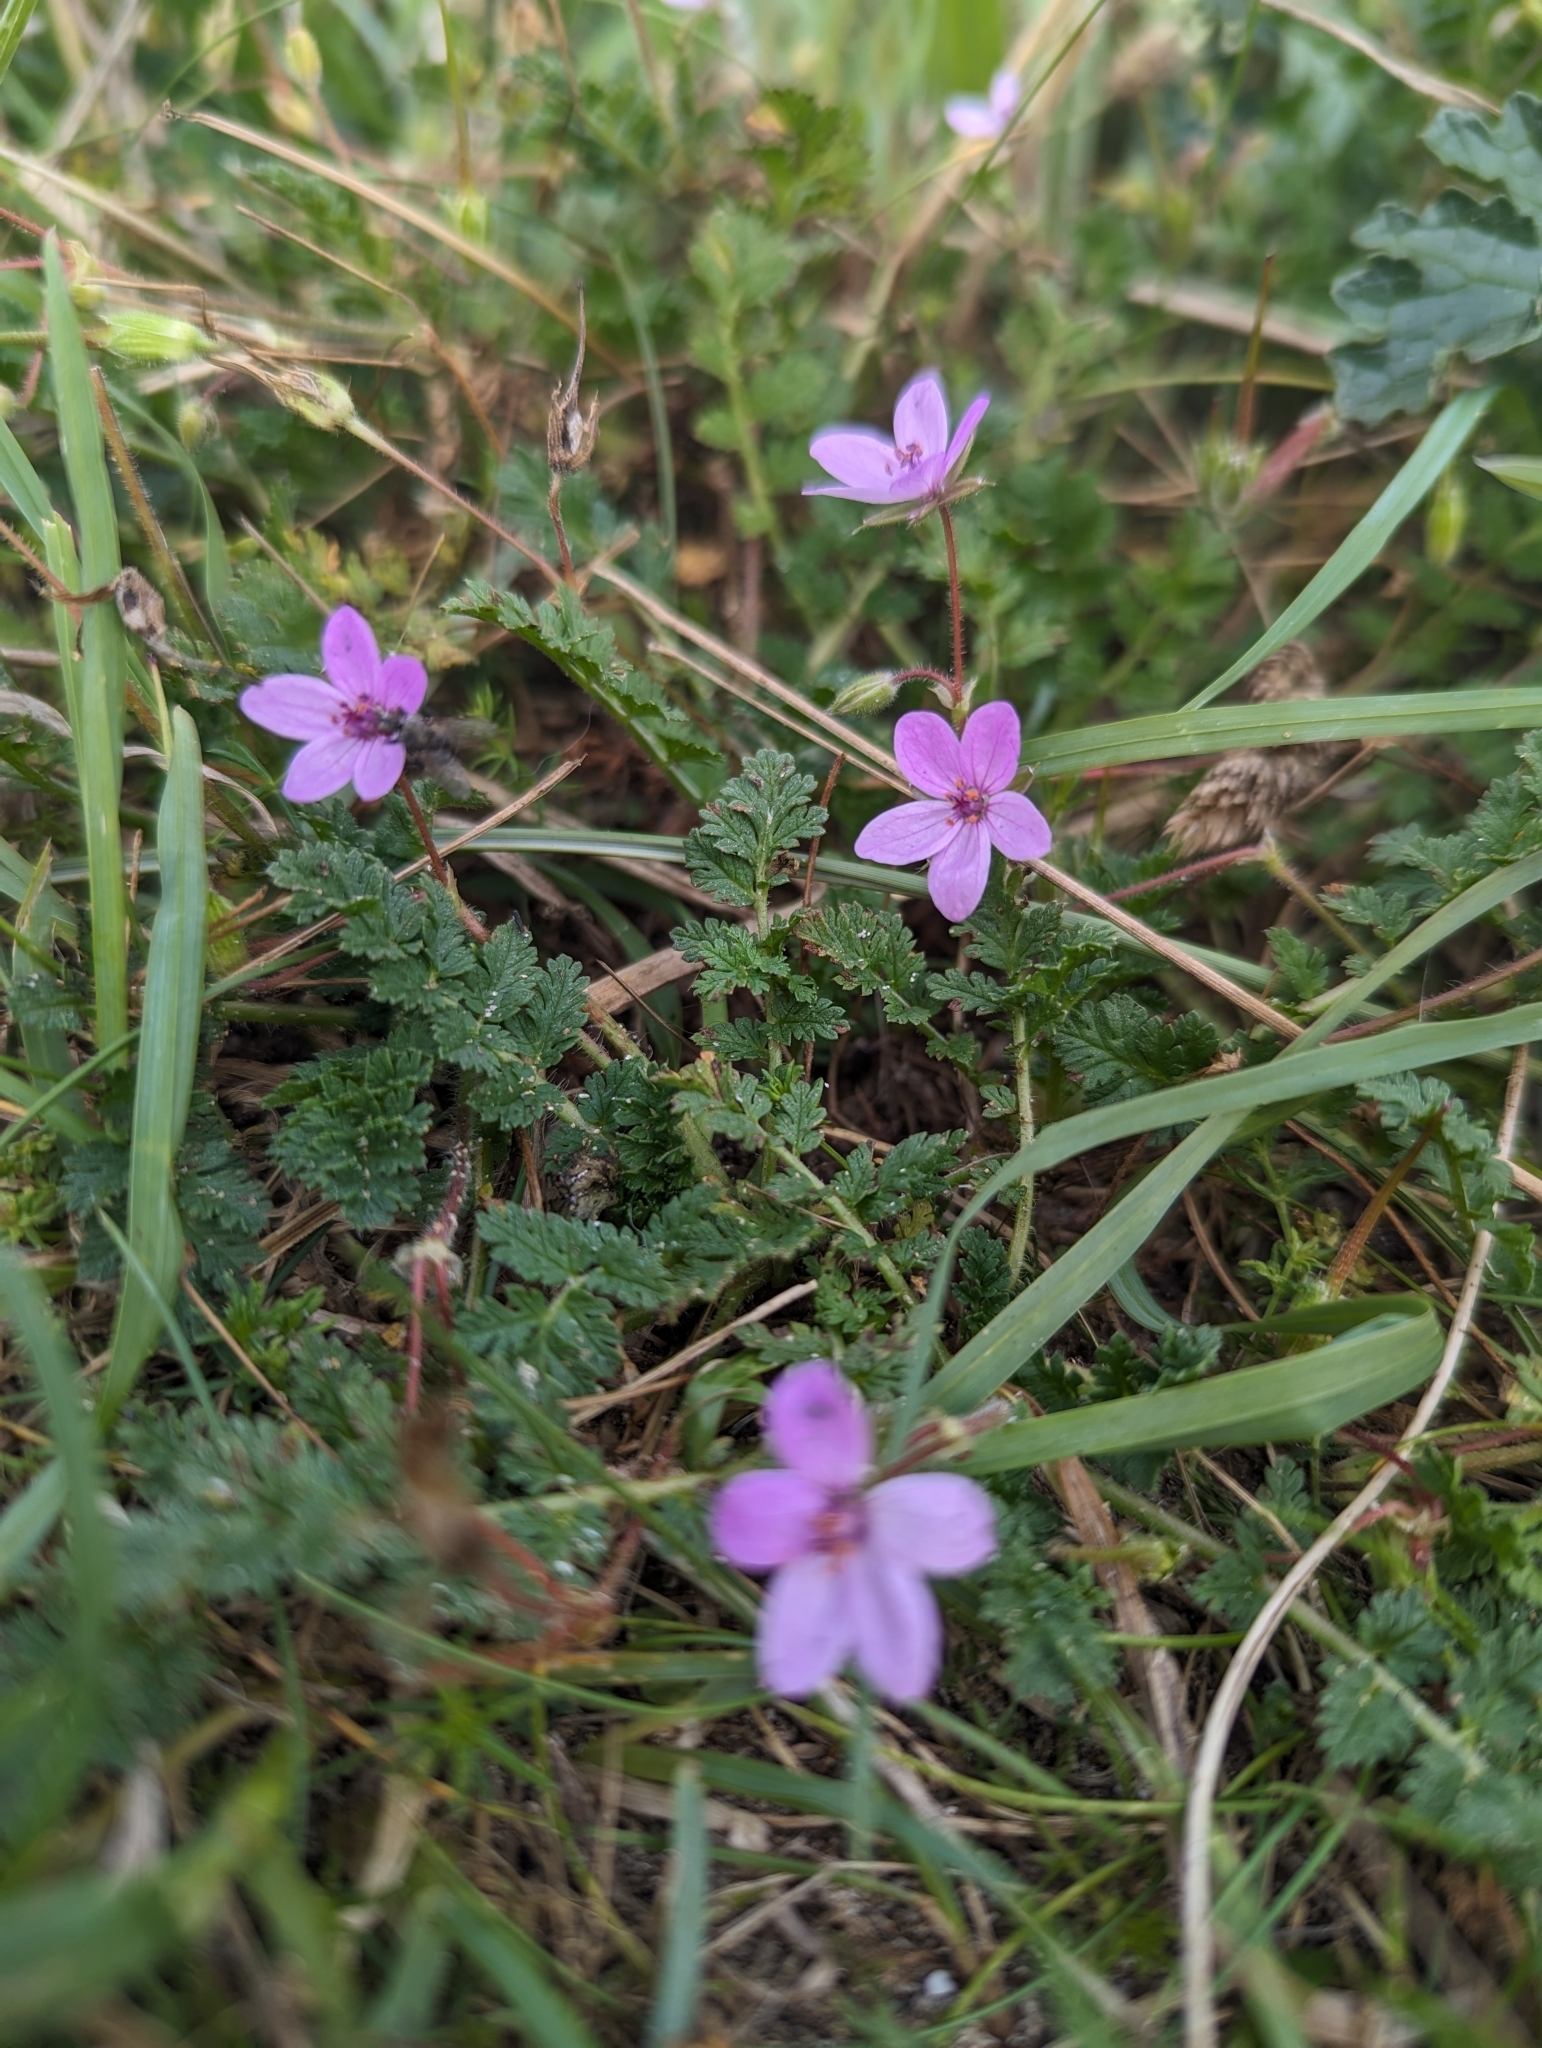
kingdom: Plantae
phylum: Tracheophyta
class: Magnoliopsida
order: Geraniales
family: Geraniaceae
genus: Erodium
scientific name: Erodium cicutarium
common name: Common stork's-bill
